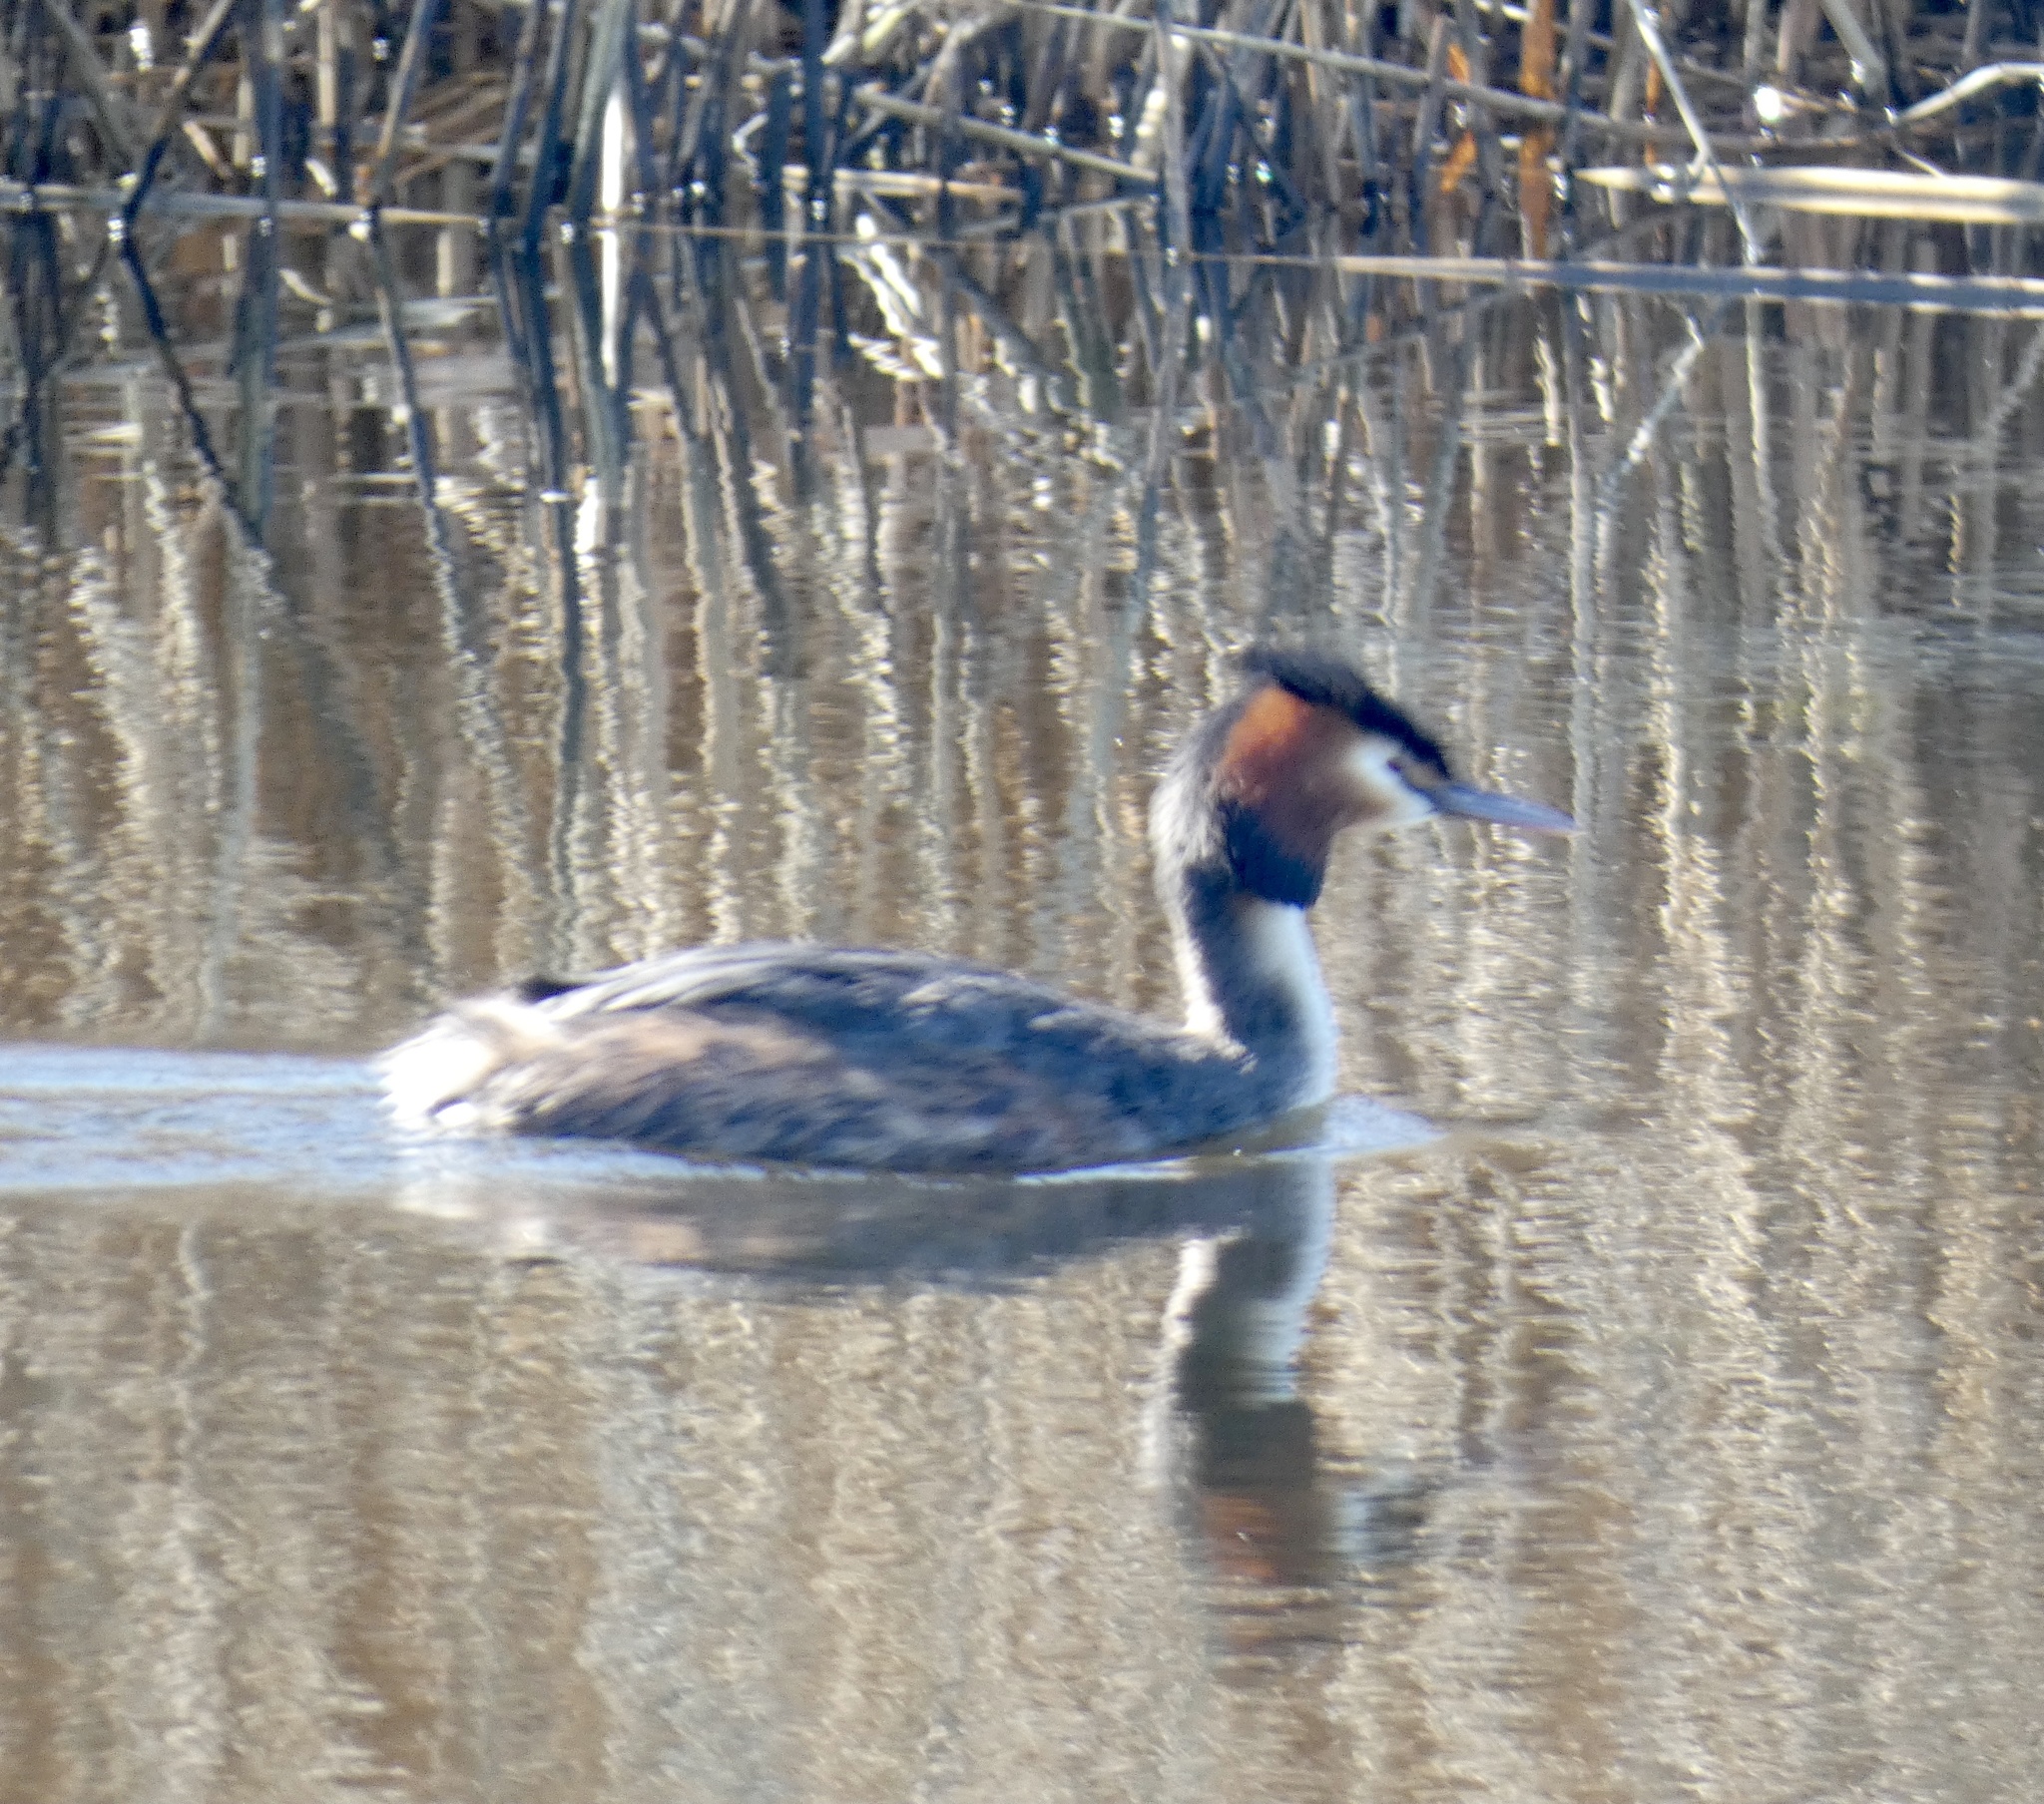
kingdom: Animalia
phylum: Chordata
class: Aves
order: Podicipediformes
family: Podicipedidae
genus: Podiceps
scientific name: Podiceps cristatus
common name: Great crested grebe
